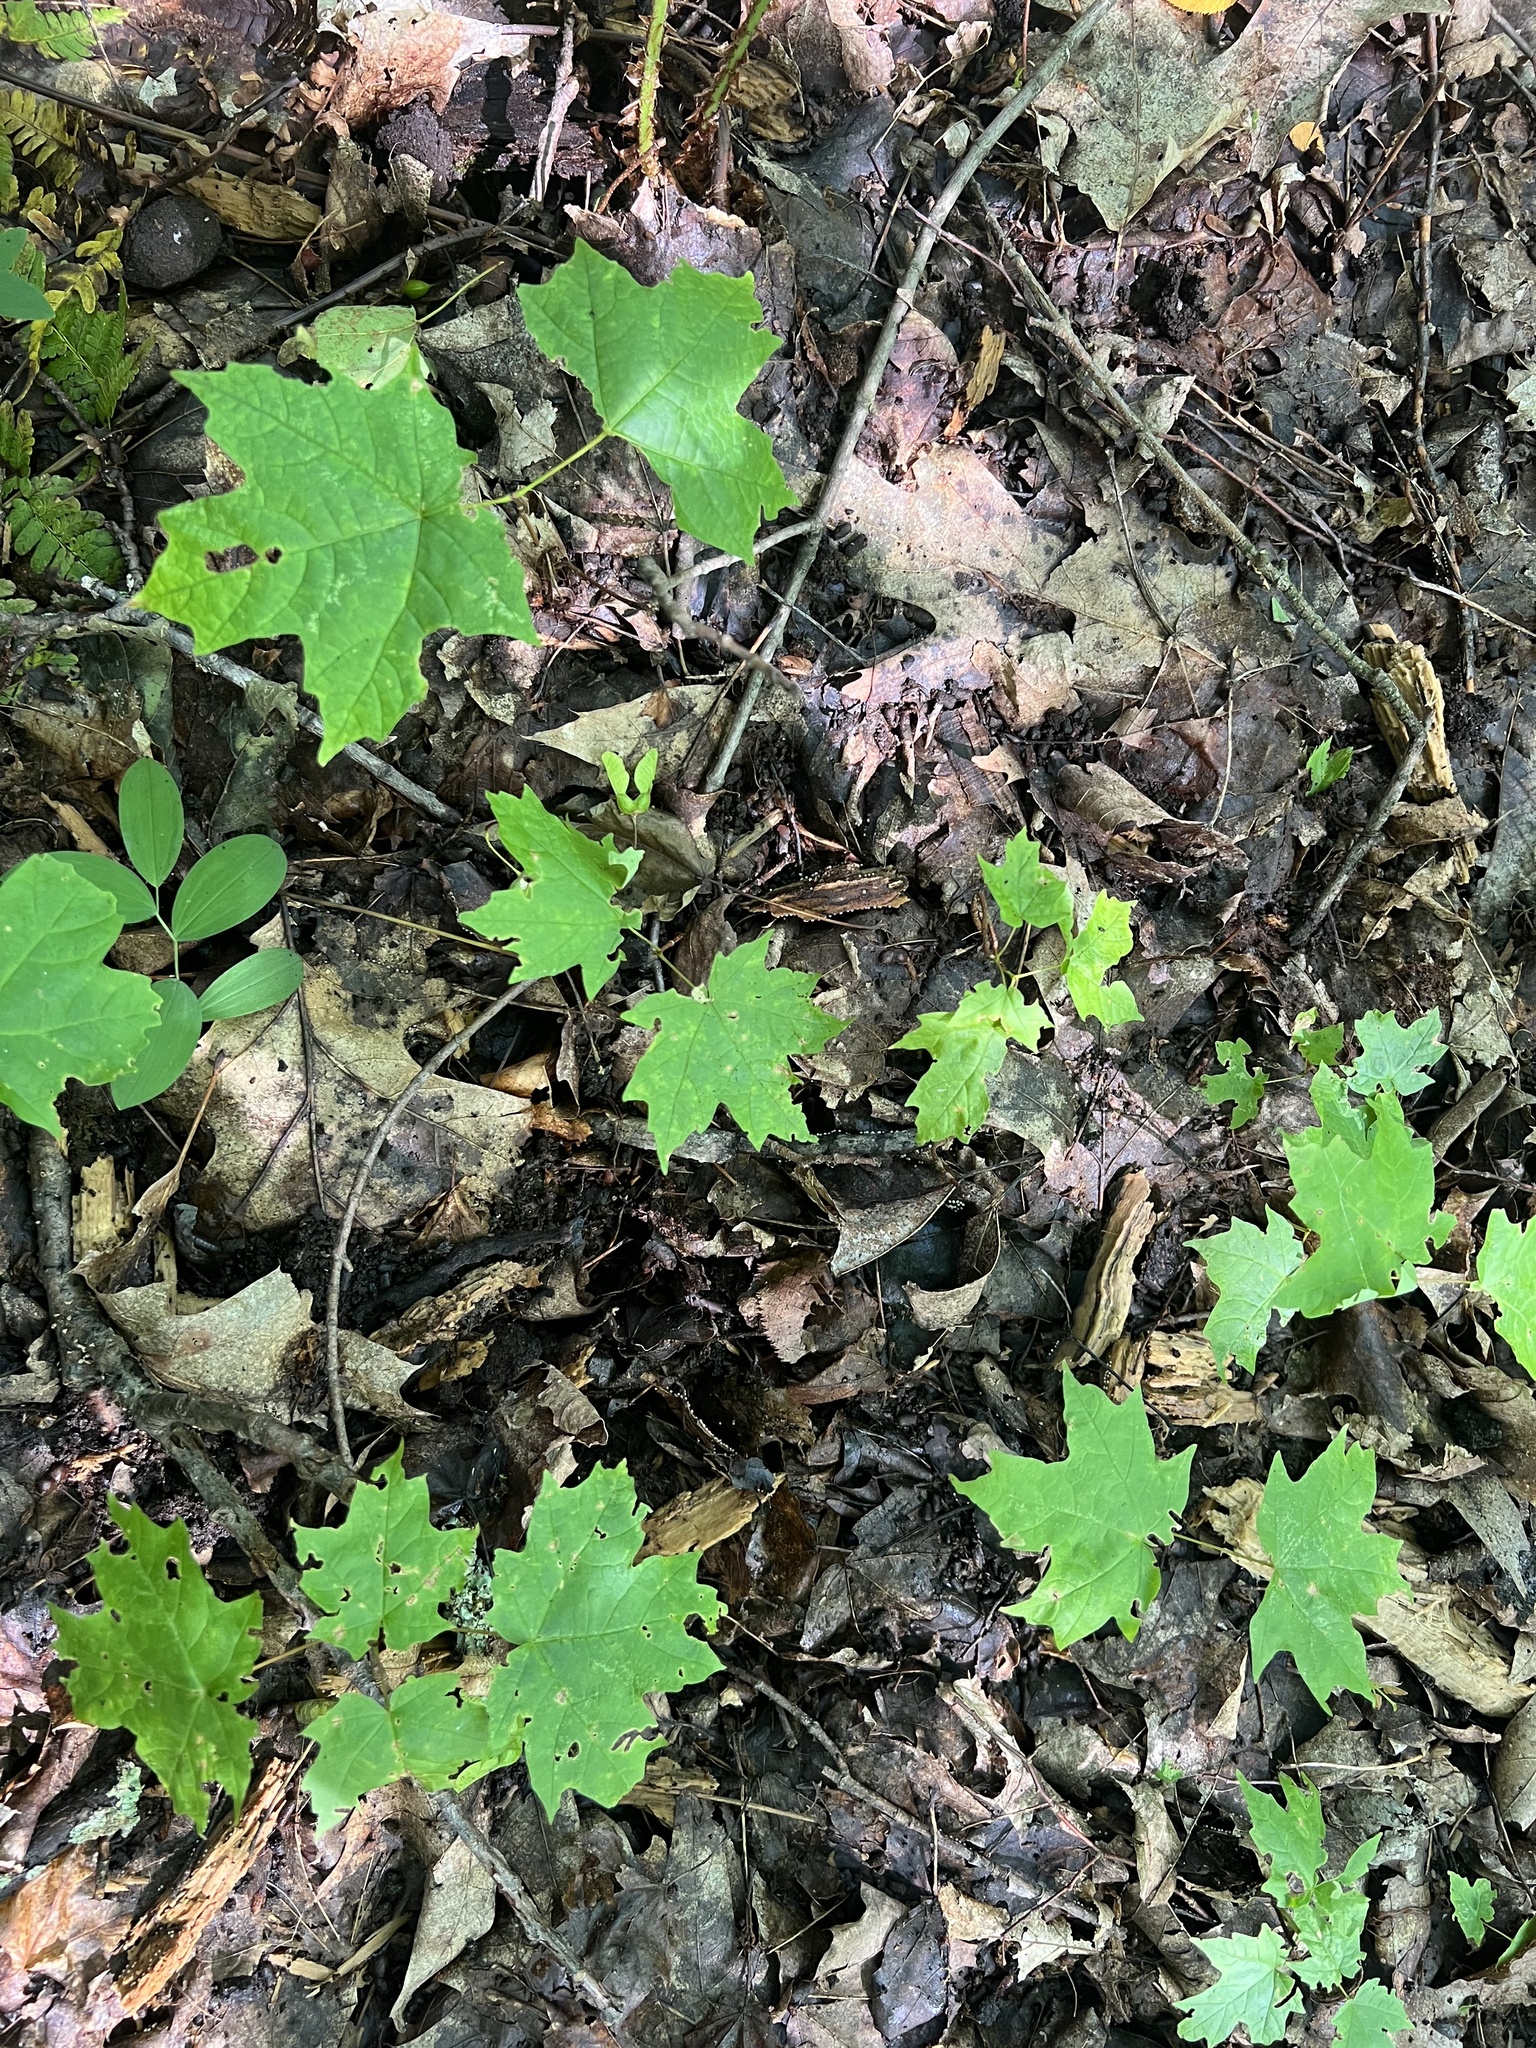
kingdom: Plantae
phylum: Tracheophyta
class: Magnoliopsida
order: Sapindales
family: Sapindaceae
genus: Acer
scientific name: Acer saccharum
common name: Sugar maple
